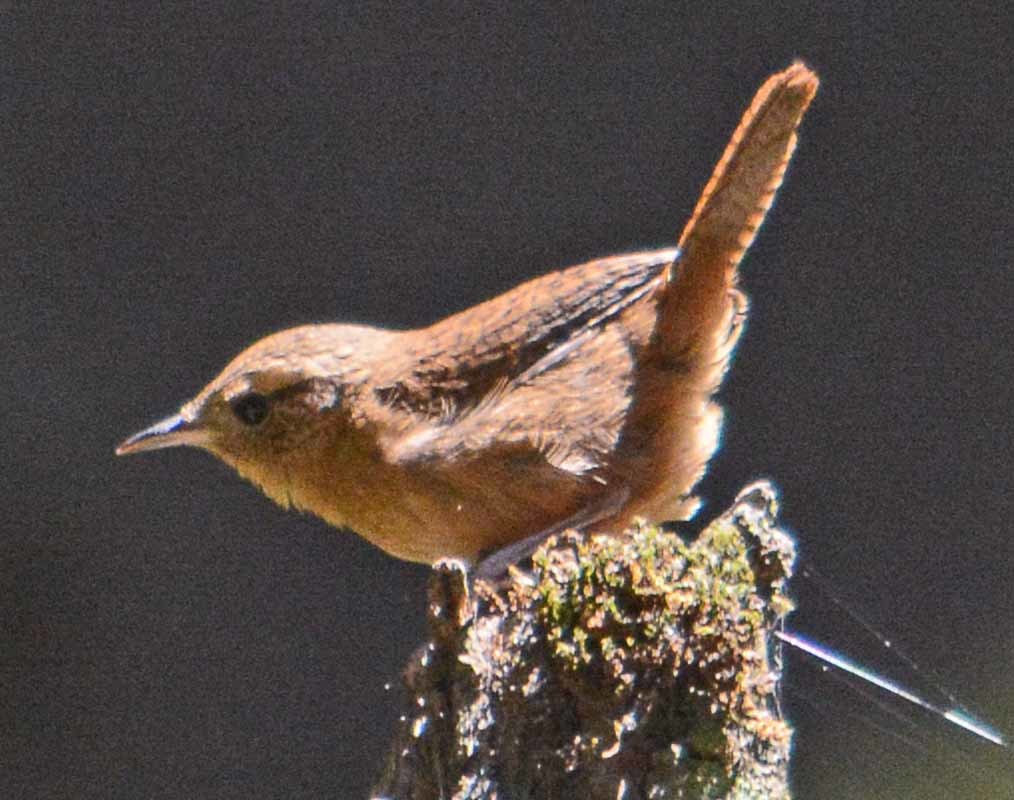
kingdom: Animalia
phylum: Chordata
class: Aves
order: Passeriformes
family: Troglodytidae
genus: Troglodytes
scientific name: Troglodytes aedon
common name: House wren
